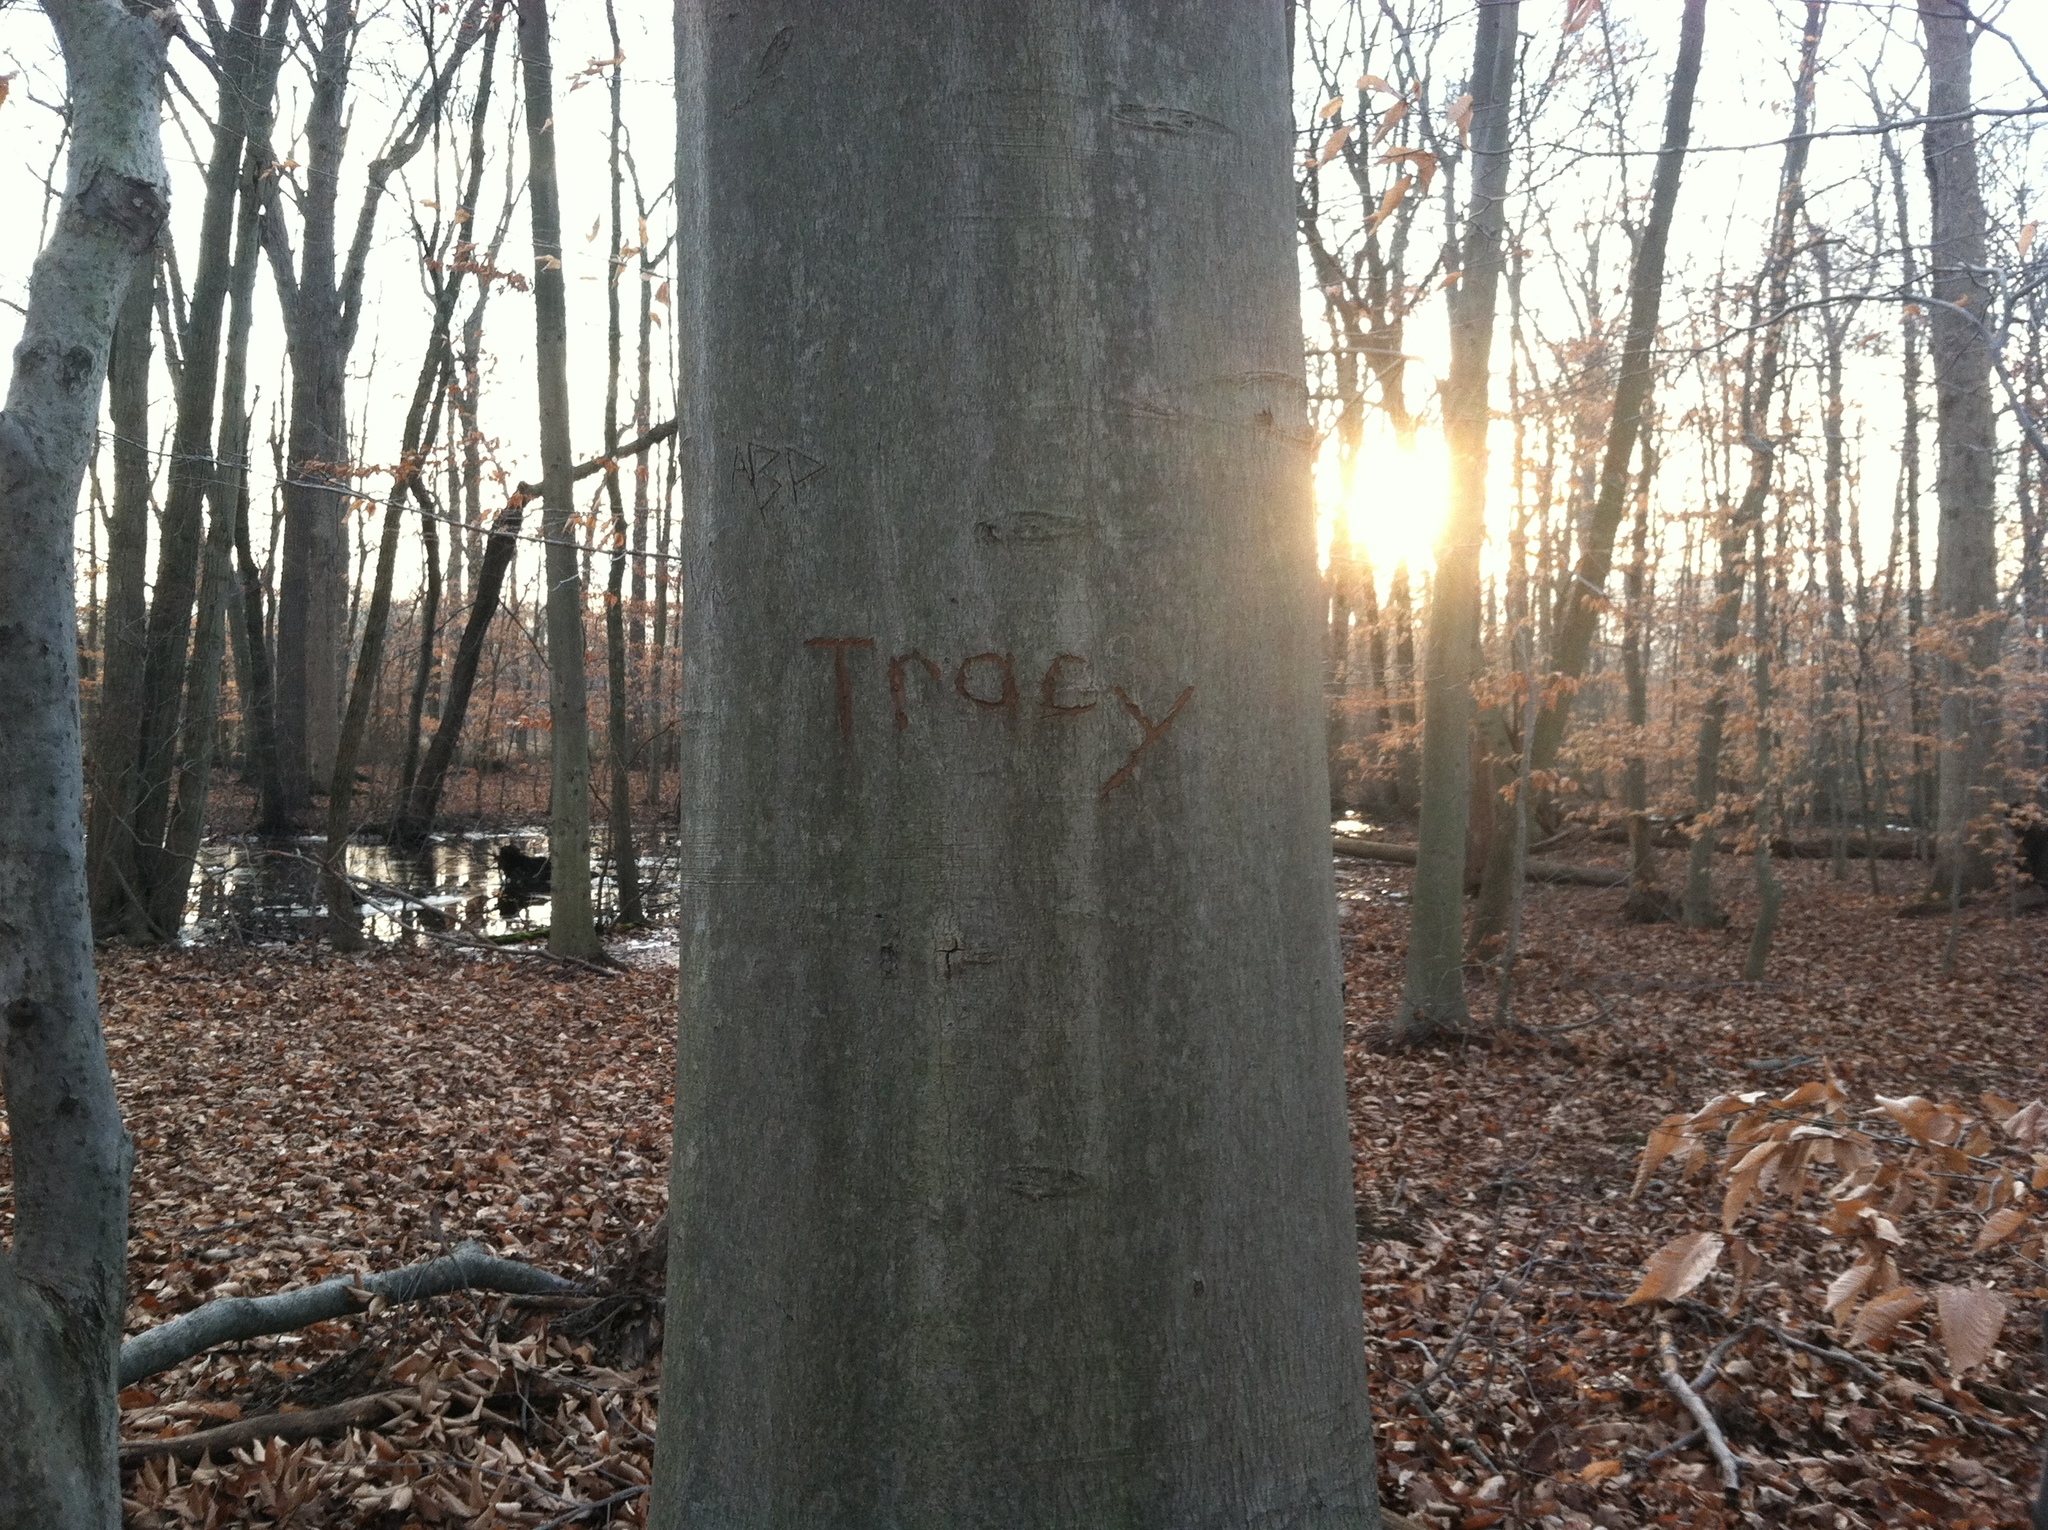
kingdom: Plantae
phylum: Tracheophyta
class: Magnoliopsida
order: Fagales
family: Fagaceae
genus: Fagus
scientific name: Fagus grandifolia
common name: American beech
